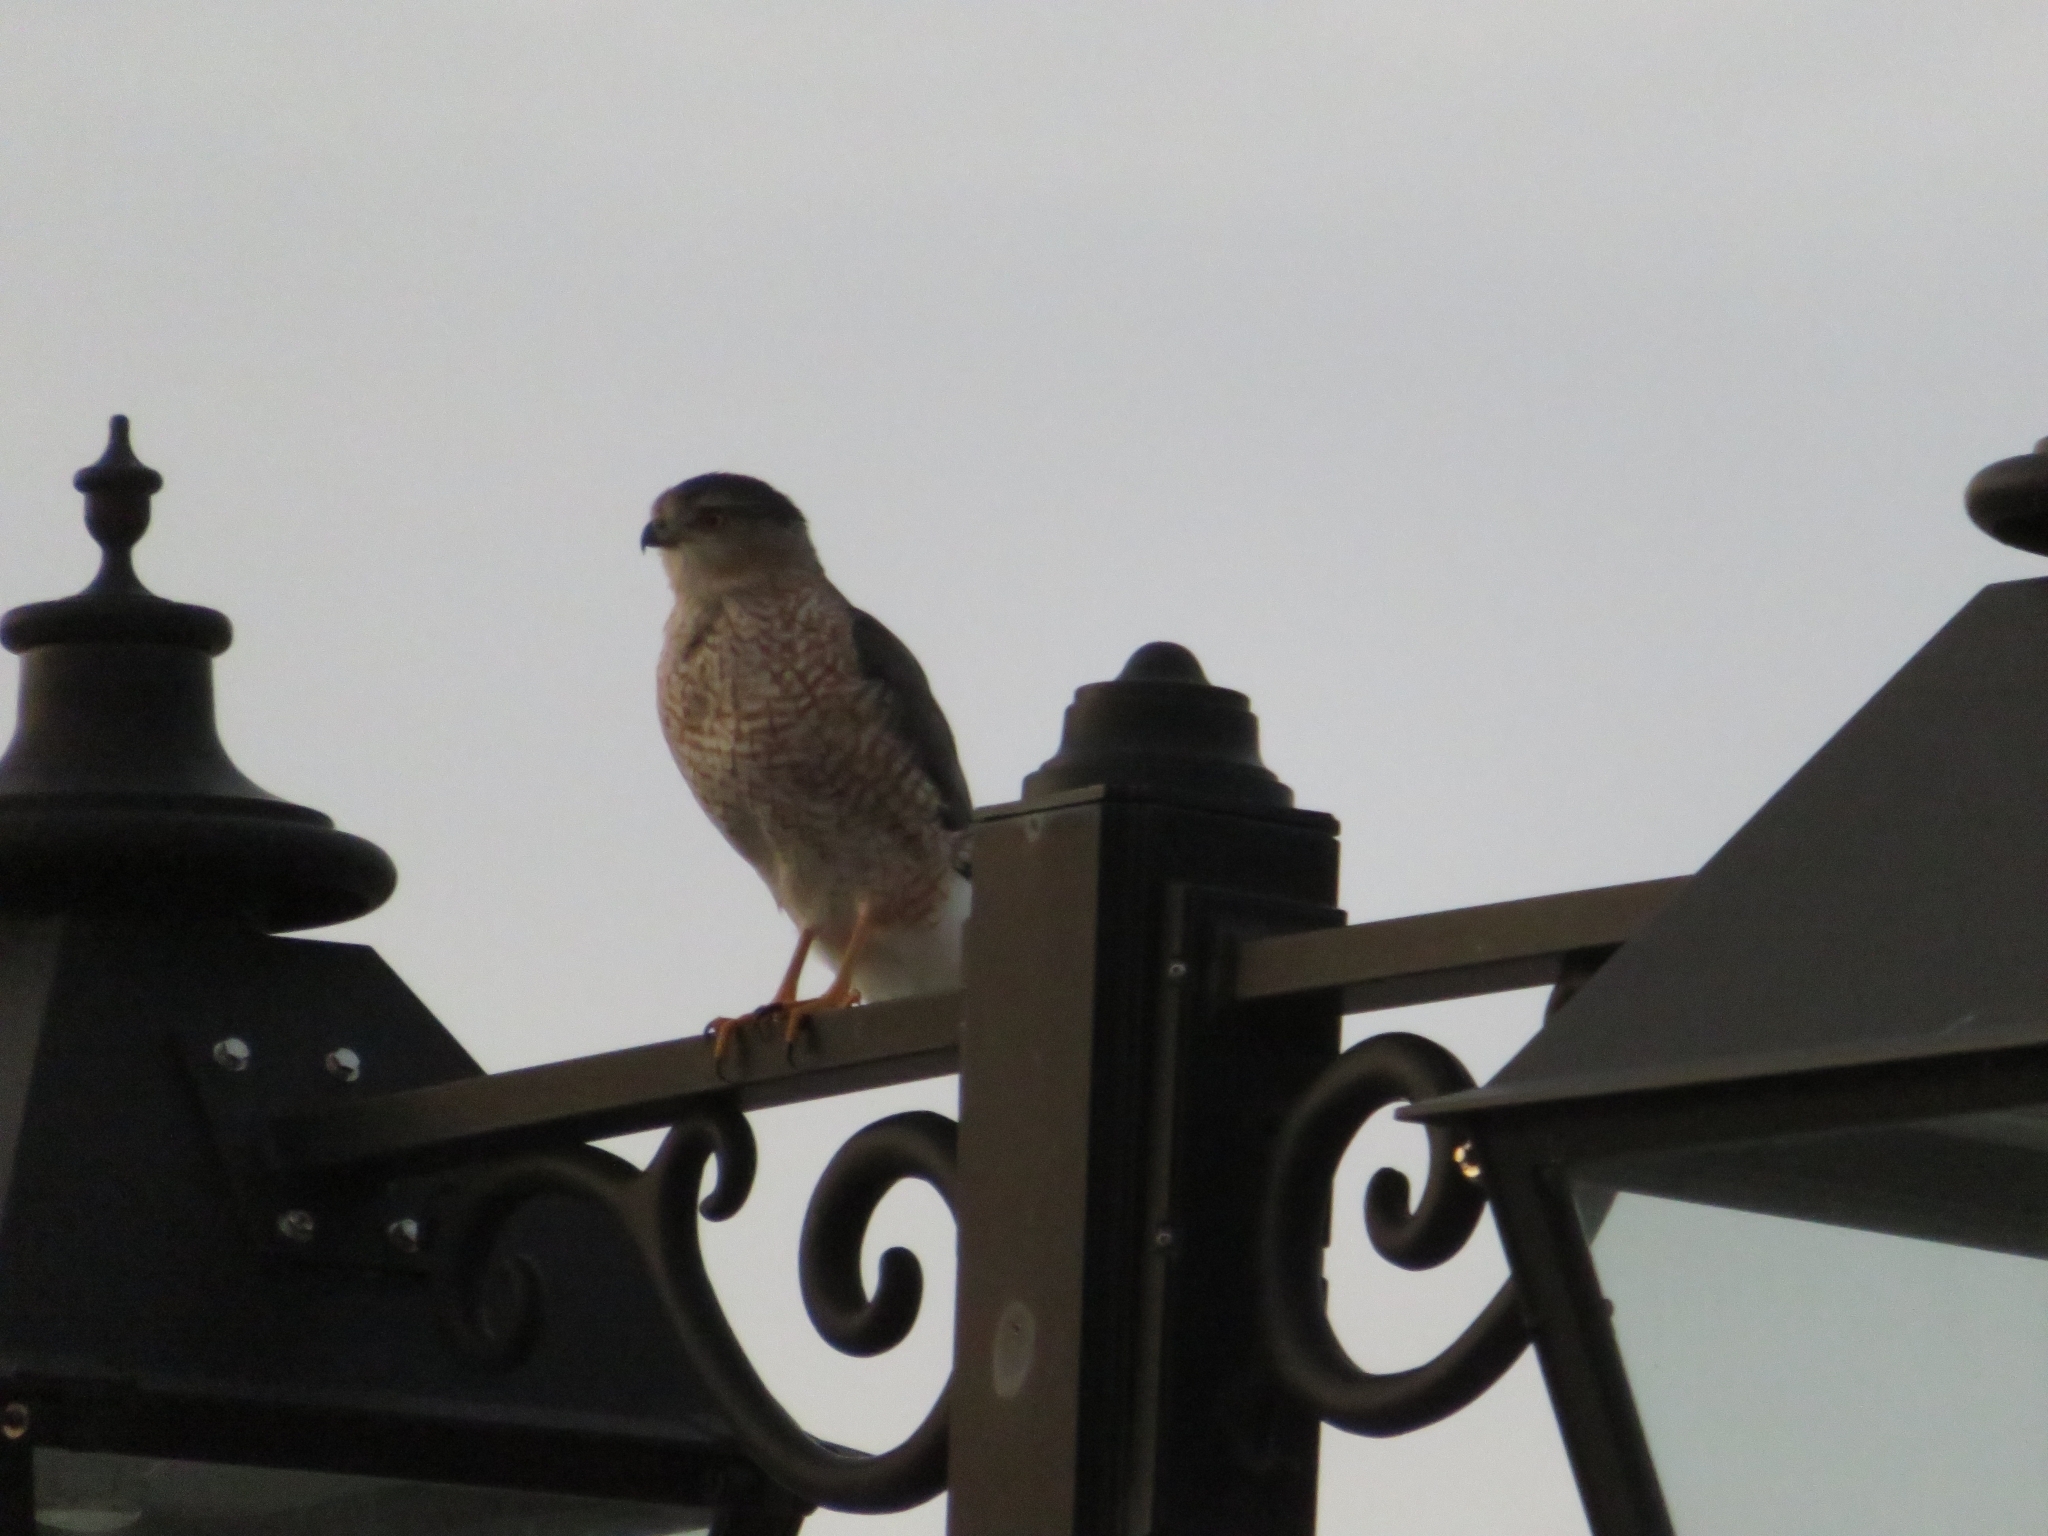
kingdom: Animalia
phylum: Chordata
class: Aves
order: Accipitriformes
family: Accipitridae
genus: Accipiter
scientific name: Accipiter cooperii
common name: Cooper's hawk
